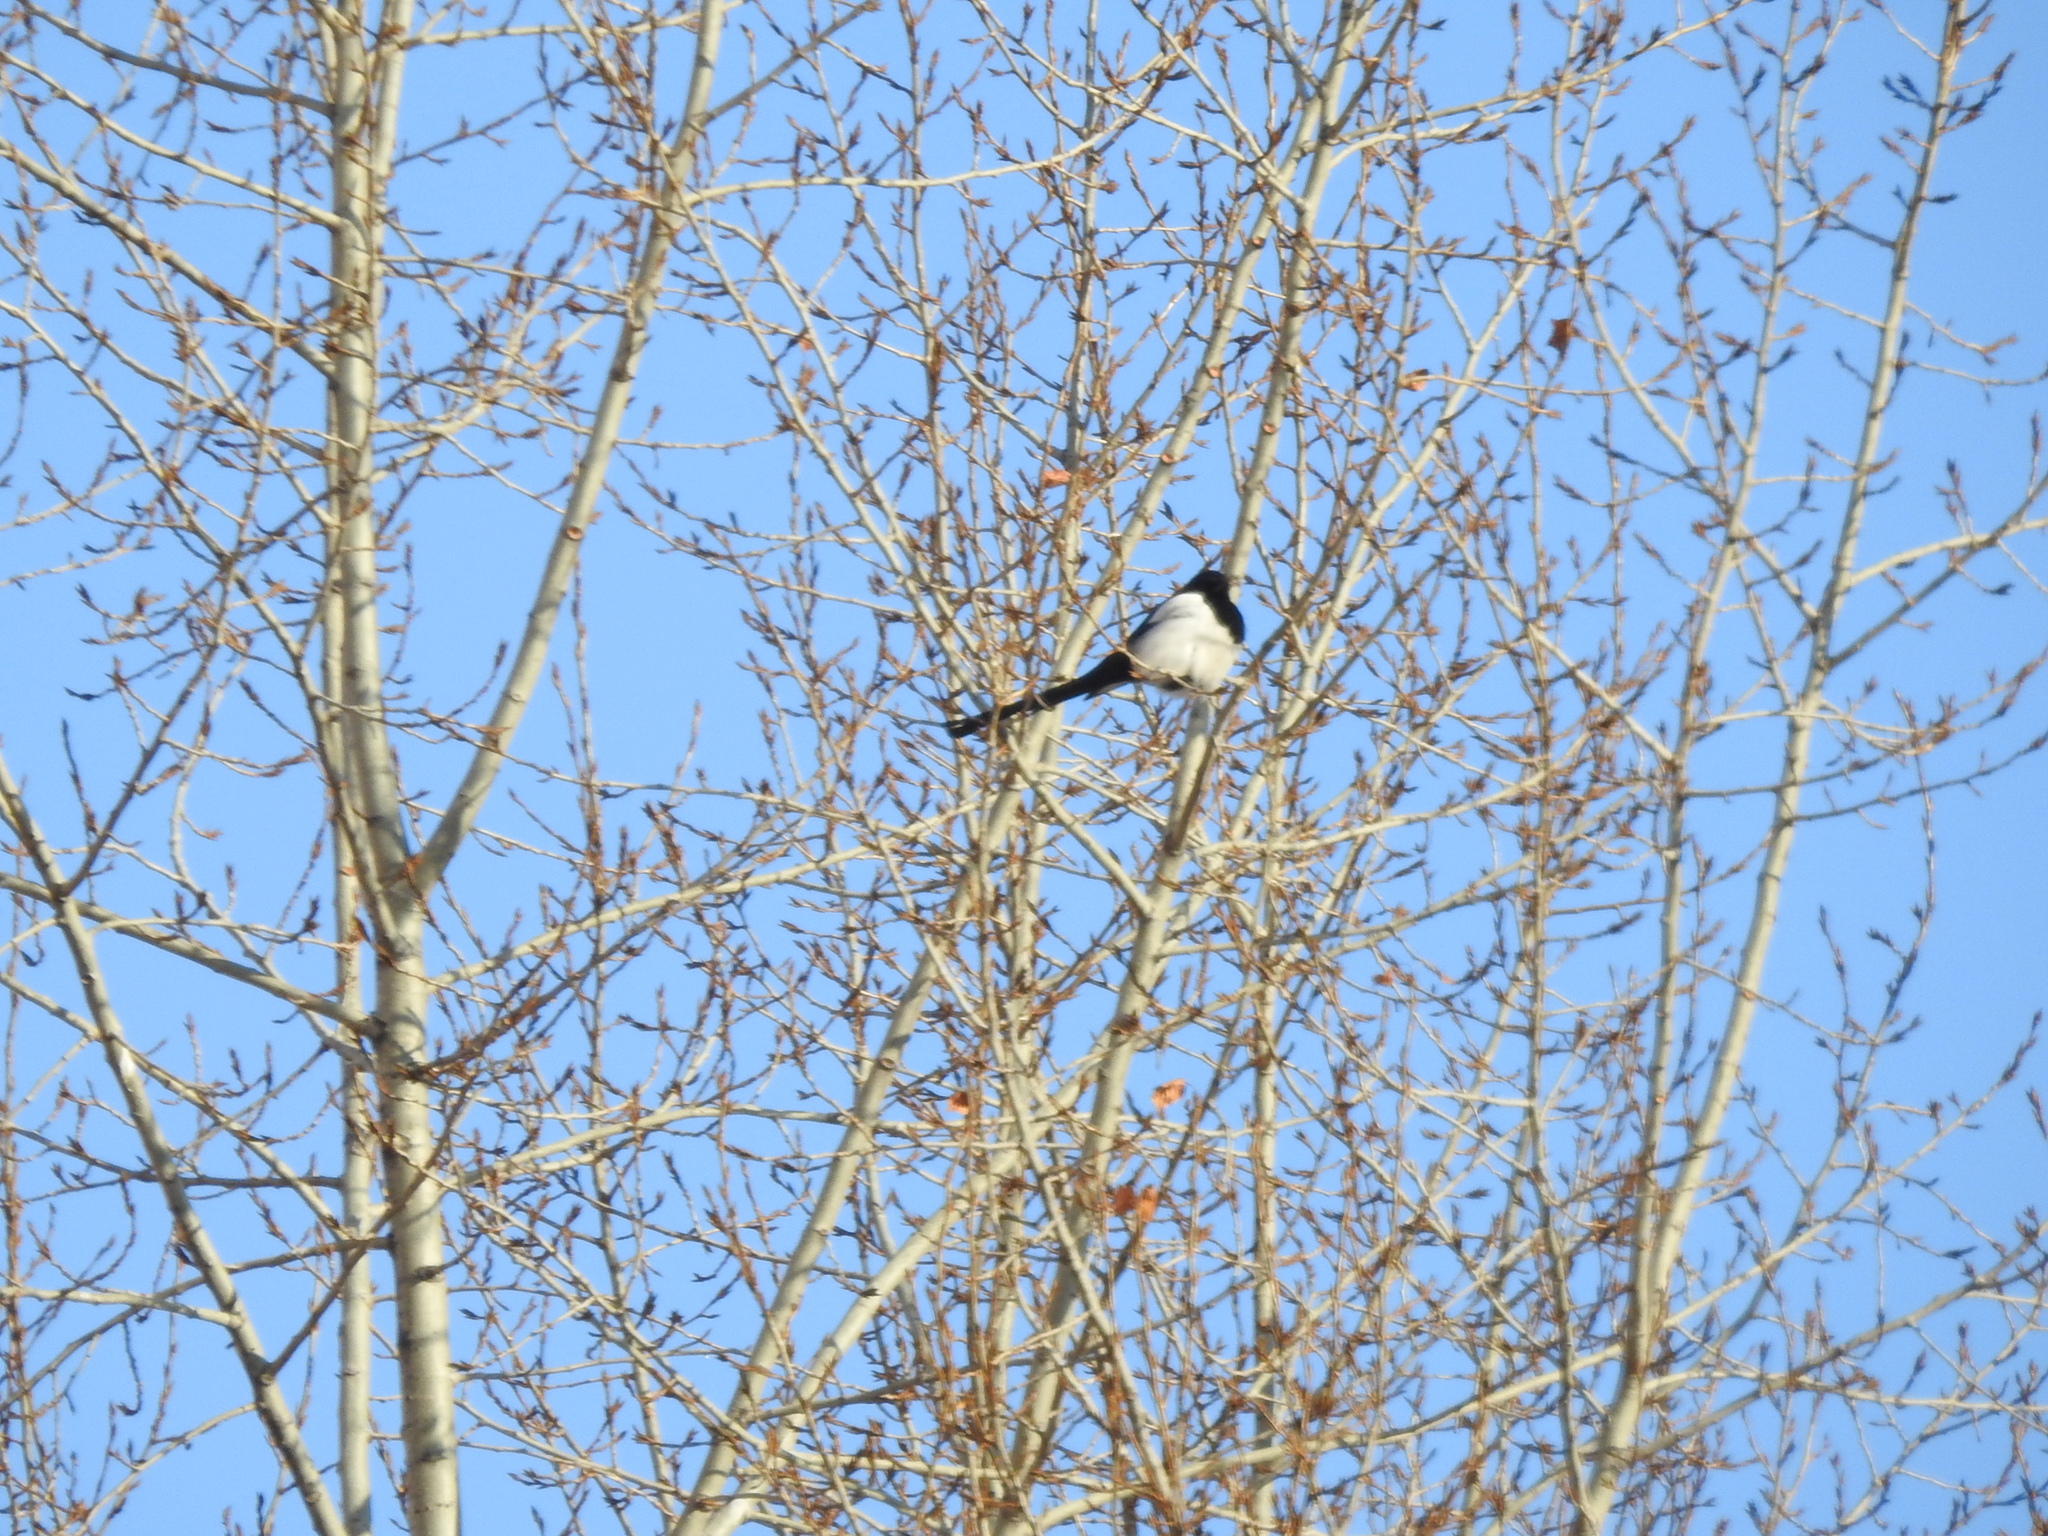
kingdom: Animalia
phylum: Chordata
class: Aves
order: Passeriformes
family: Corvidae
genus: Pica
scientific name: Pica pica
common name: Eurasian magpie
